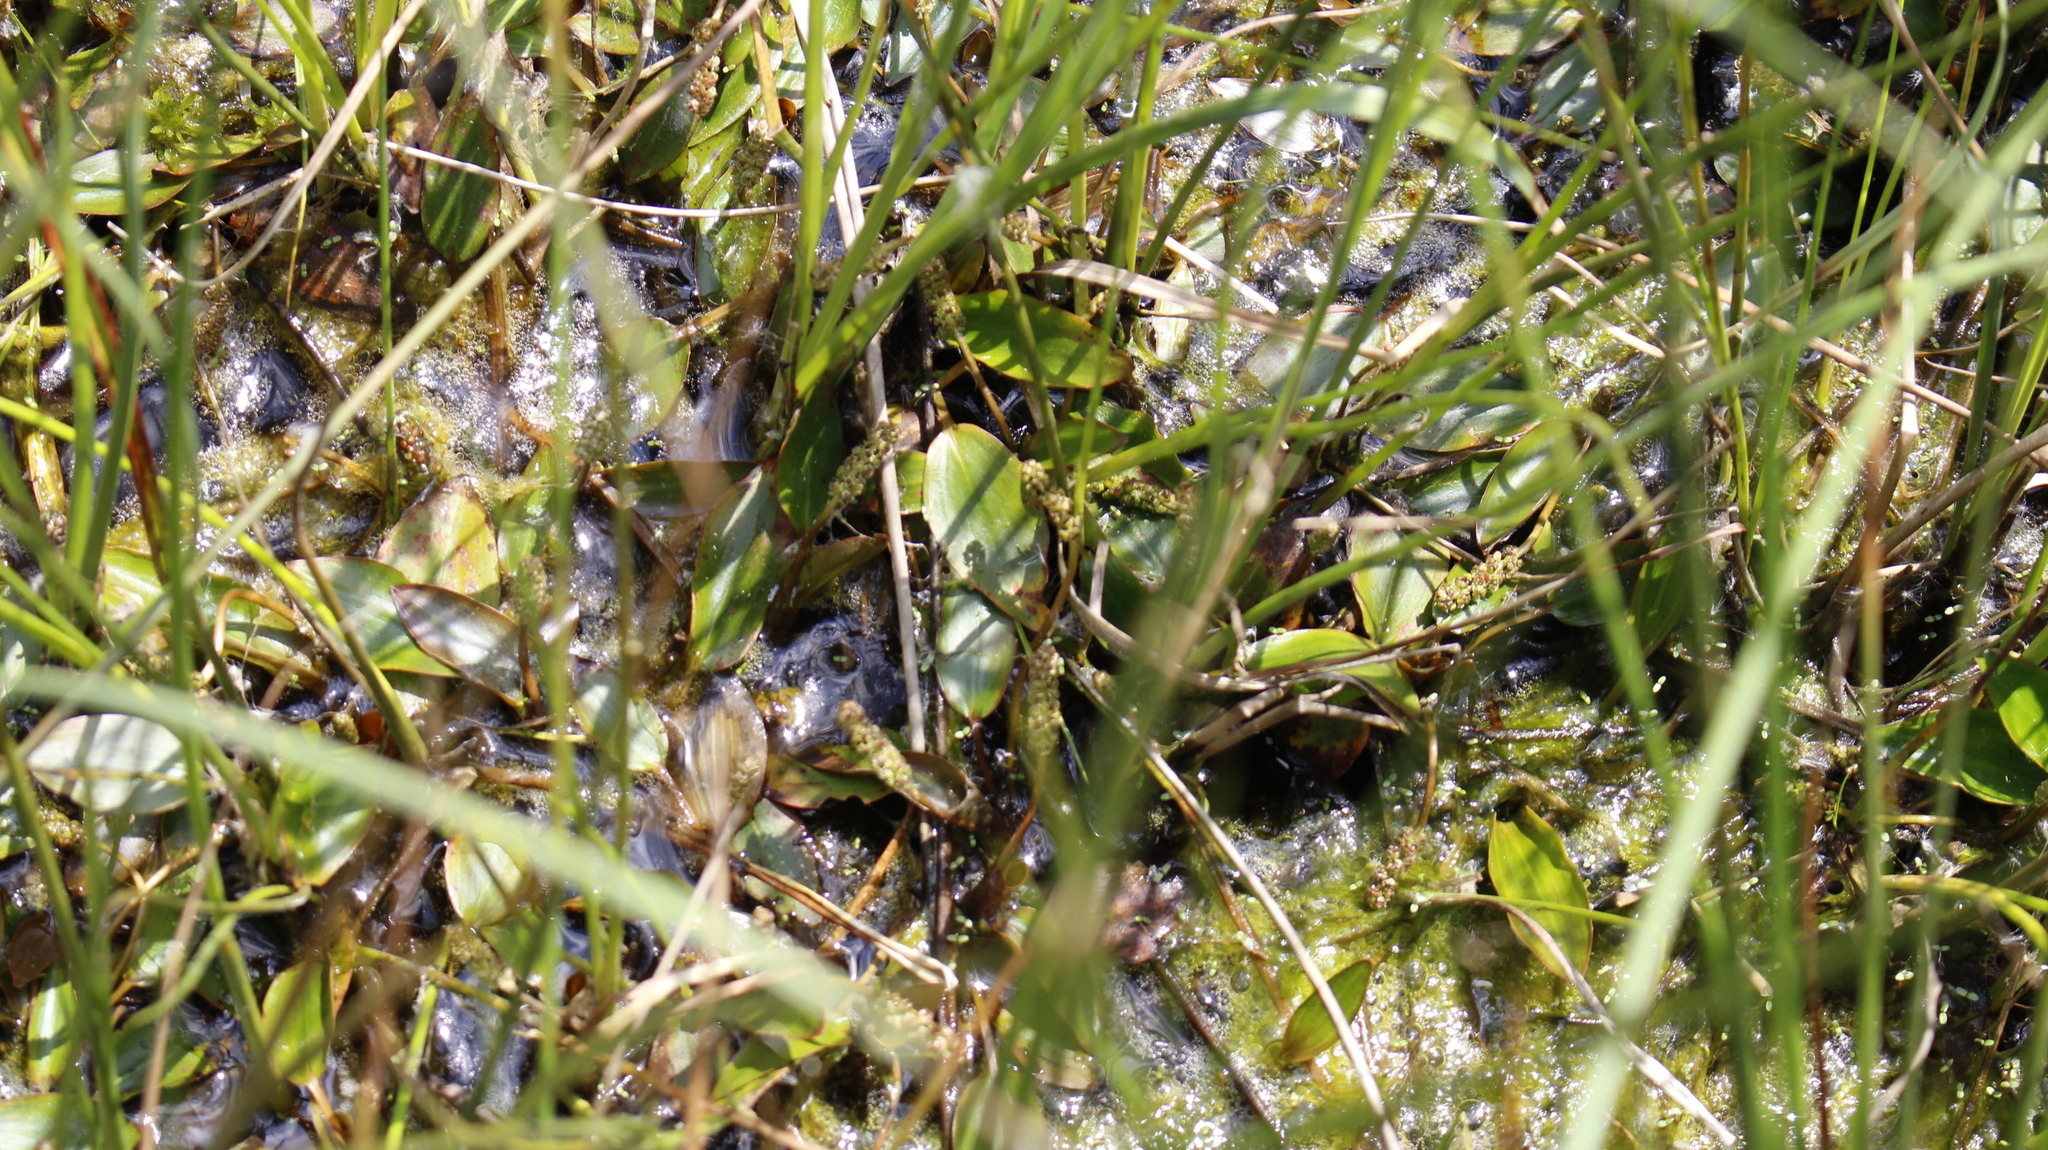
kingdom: Plantae
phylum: Tracheophyta
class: Liliopsida
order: Alismatales
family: Potamogetonaceae
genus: Potamogeton
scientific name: Potamogeton polygonifolius
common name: Bog pondweed
